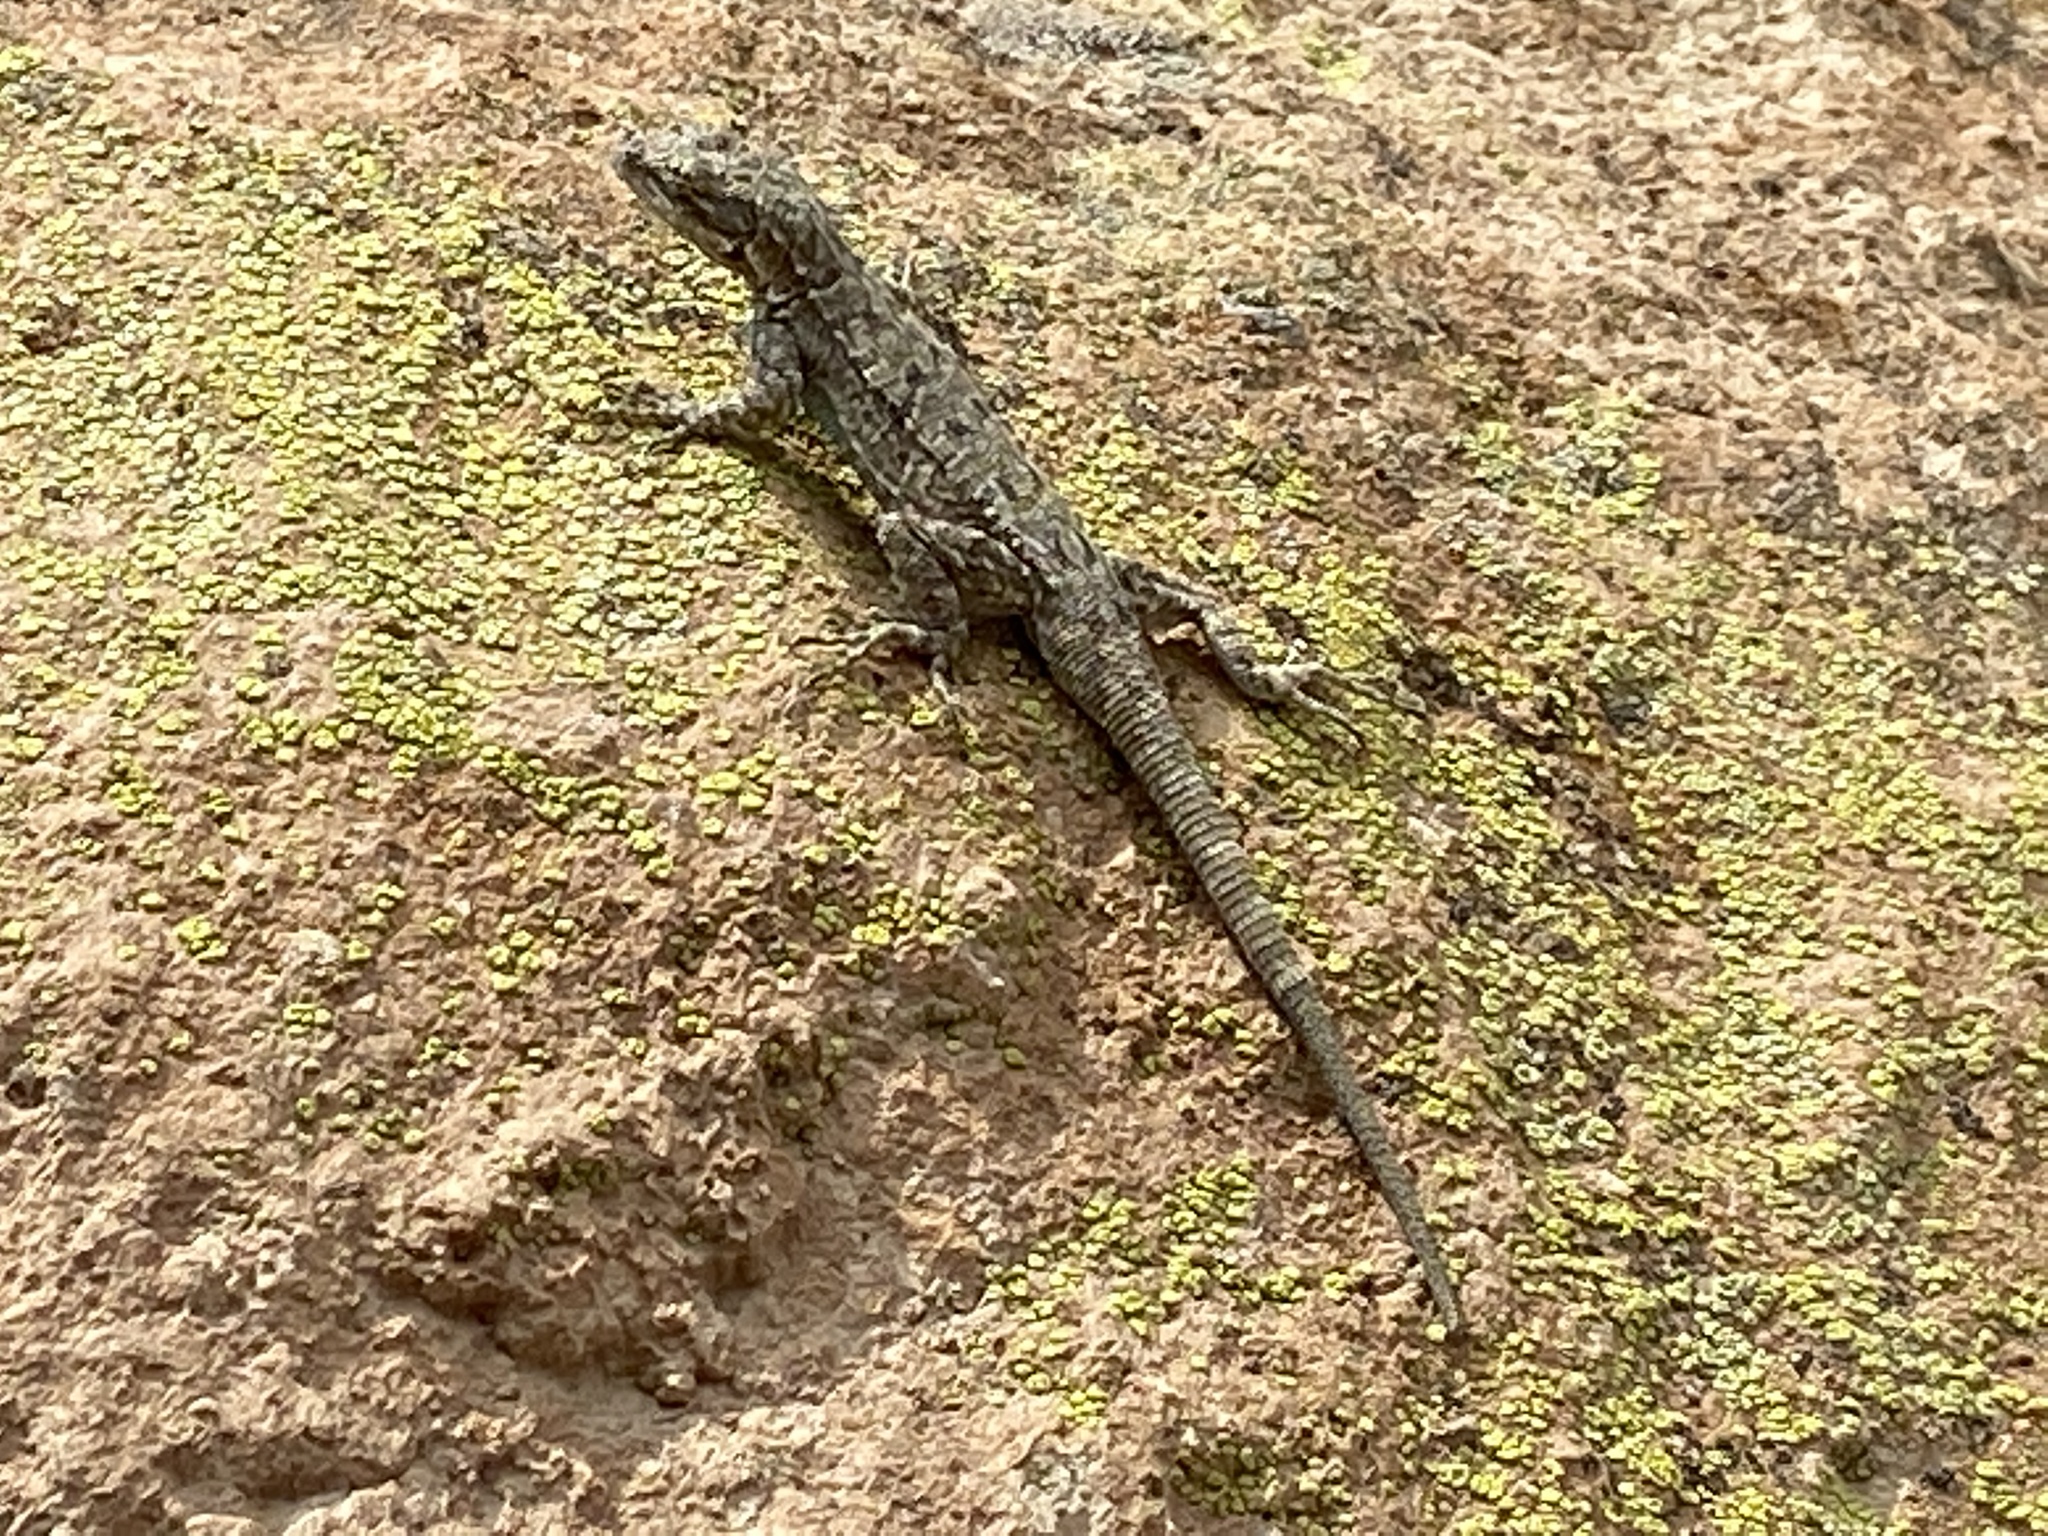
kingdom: Animalia
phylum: Chordata
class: Squamata
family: Phrynosomatidae
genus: Urosaurus
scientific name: Urosaurus ornatus
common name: Ornate tree lizard
